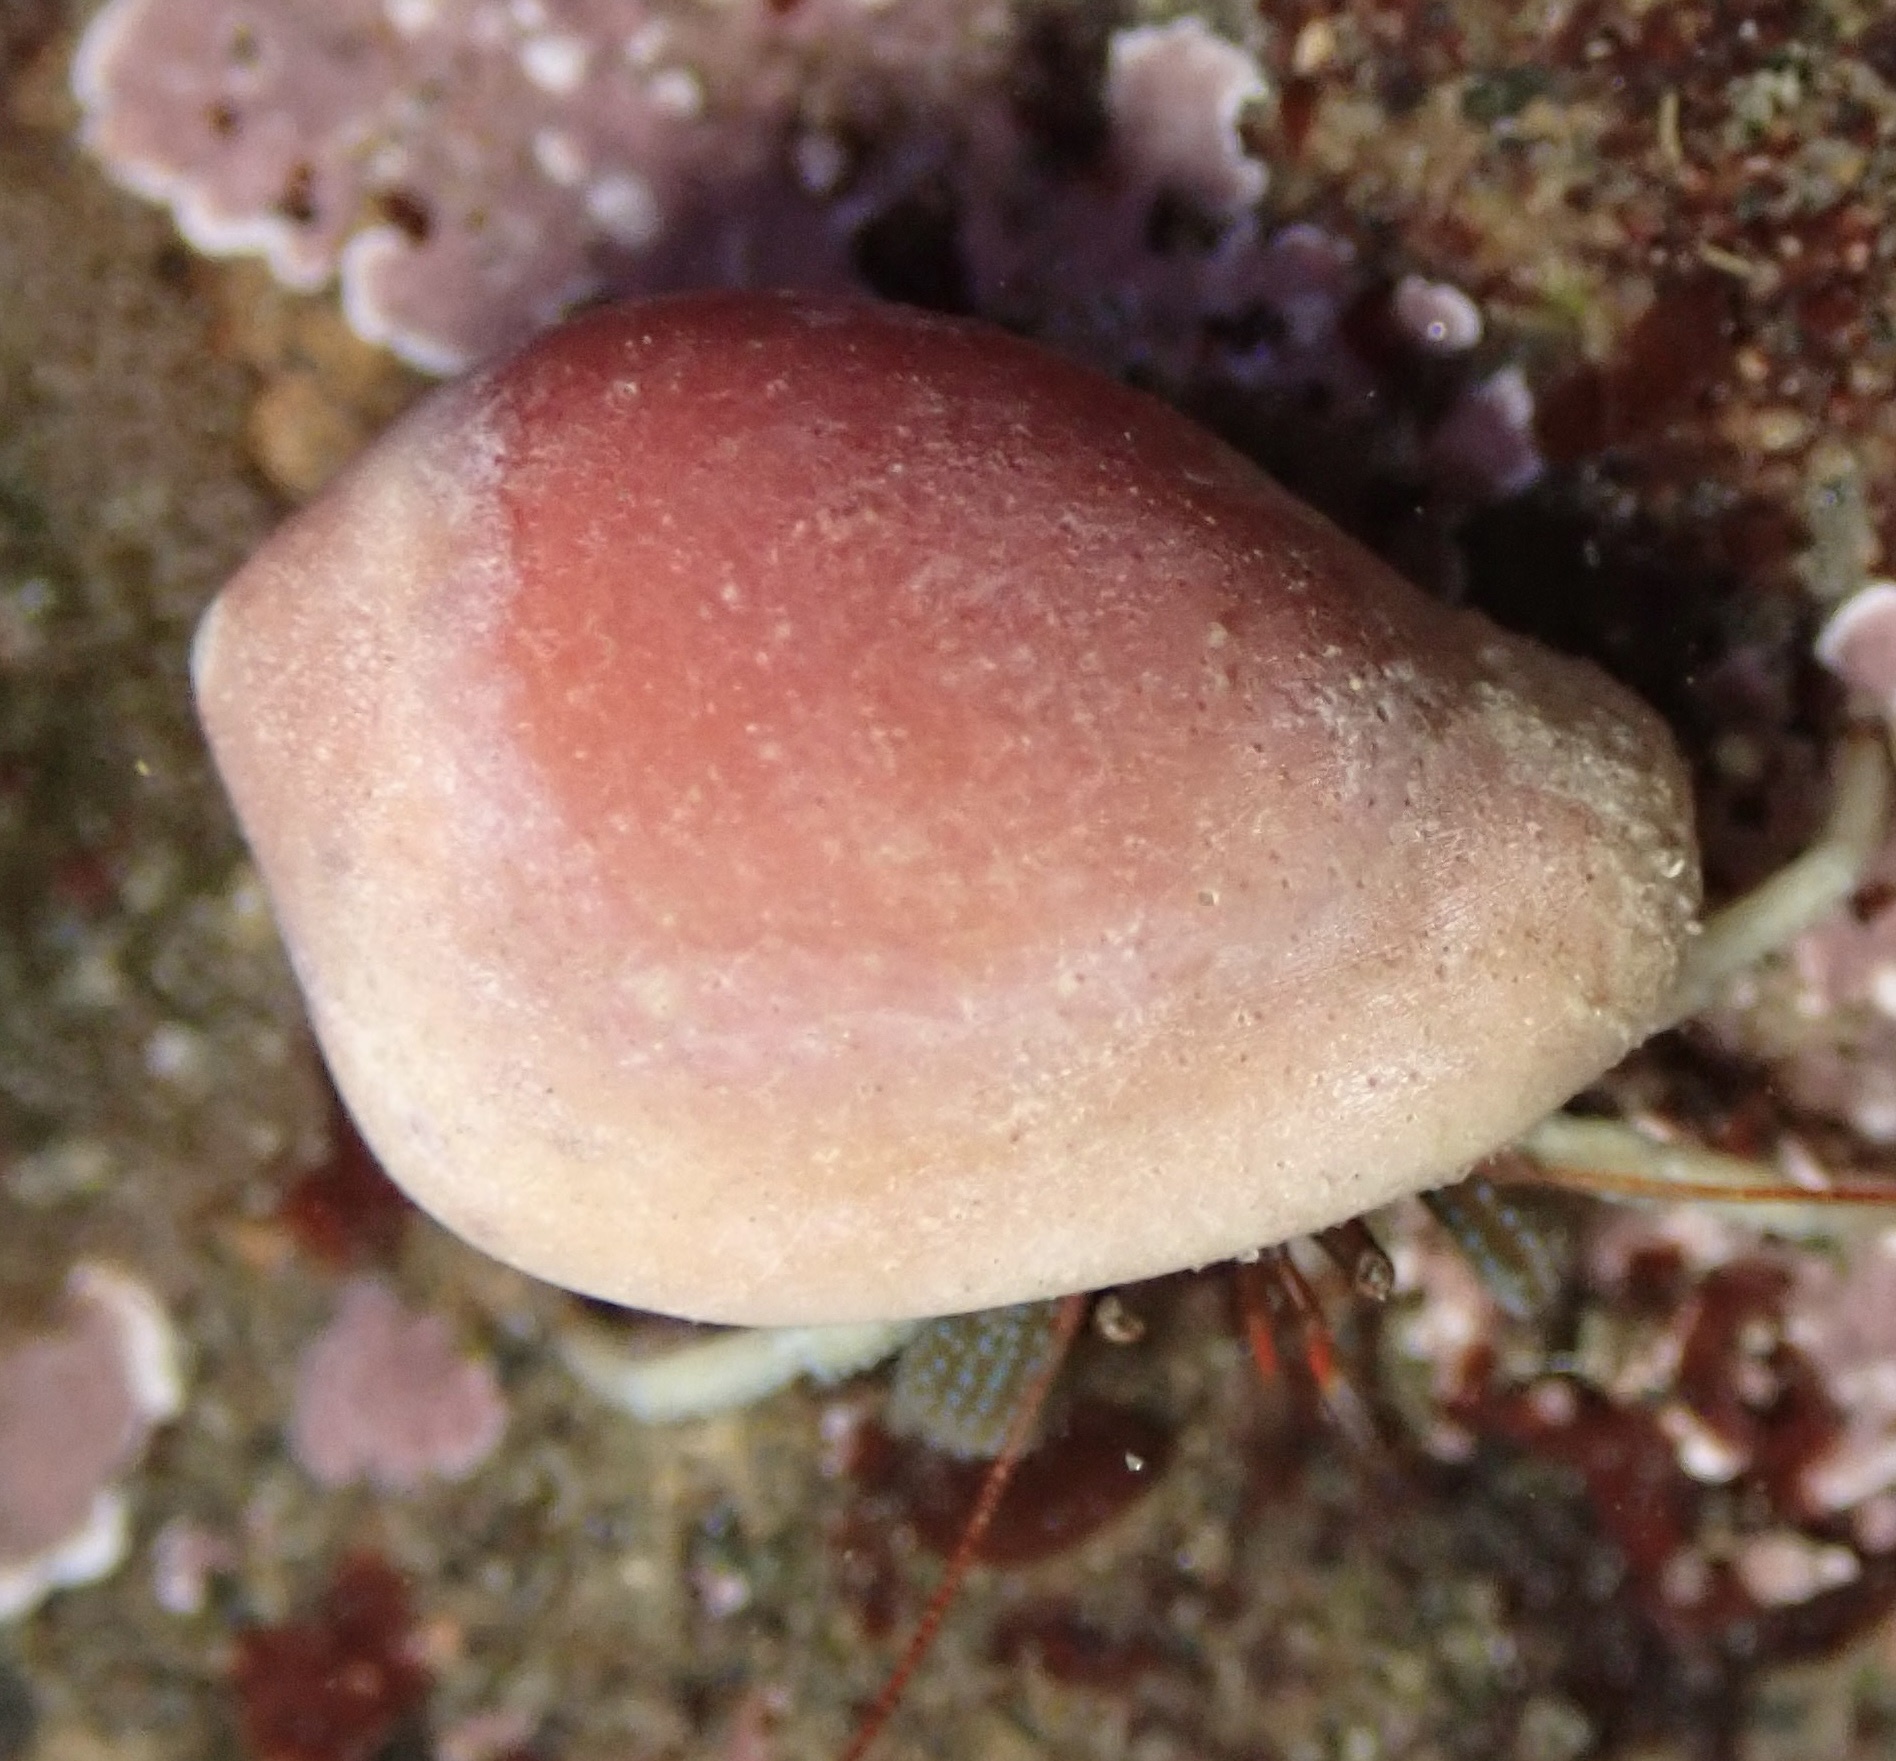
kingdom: Animalia
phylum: Mollusca
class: Gastropoda
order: Littorinimorpha
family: Eratoidae
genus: Hespererato
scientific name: Hespererato vitellina
